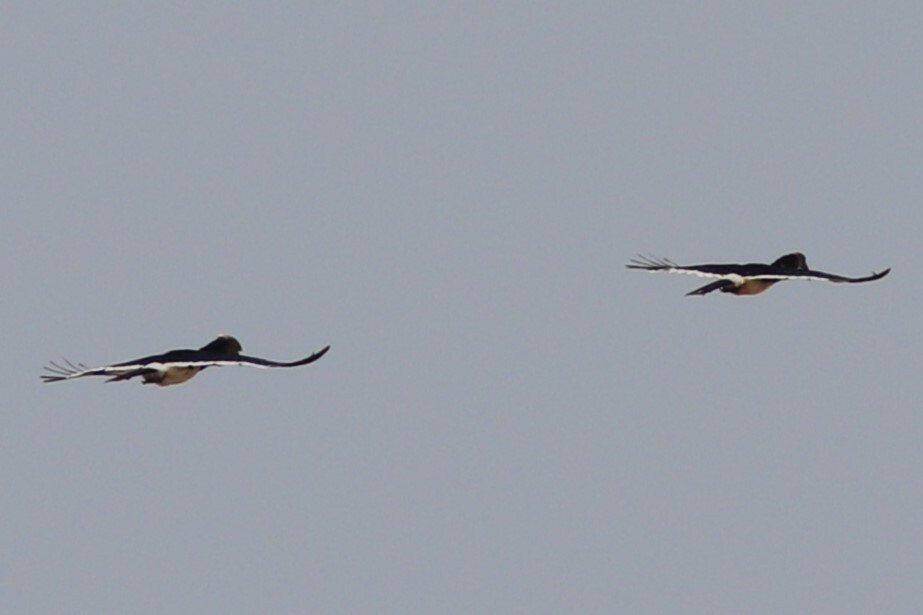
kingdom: Animalia
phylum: Chordata
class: Aves
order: Bucerotiformes
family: Bucerotidae
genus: Bycanistes
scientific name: Bycanistes bucinator
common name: Trumpeter hornbill
